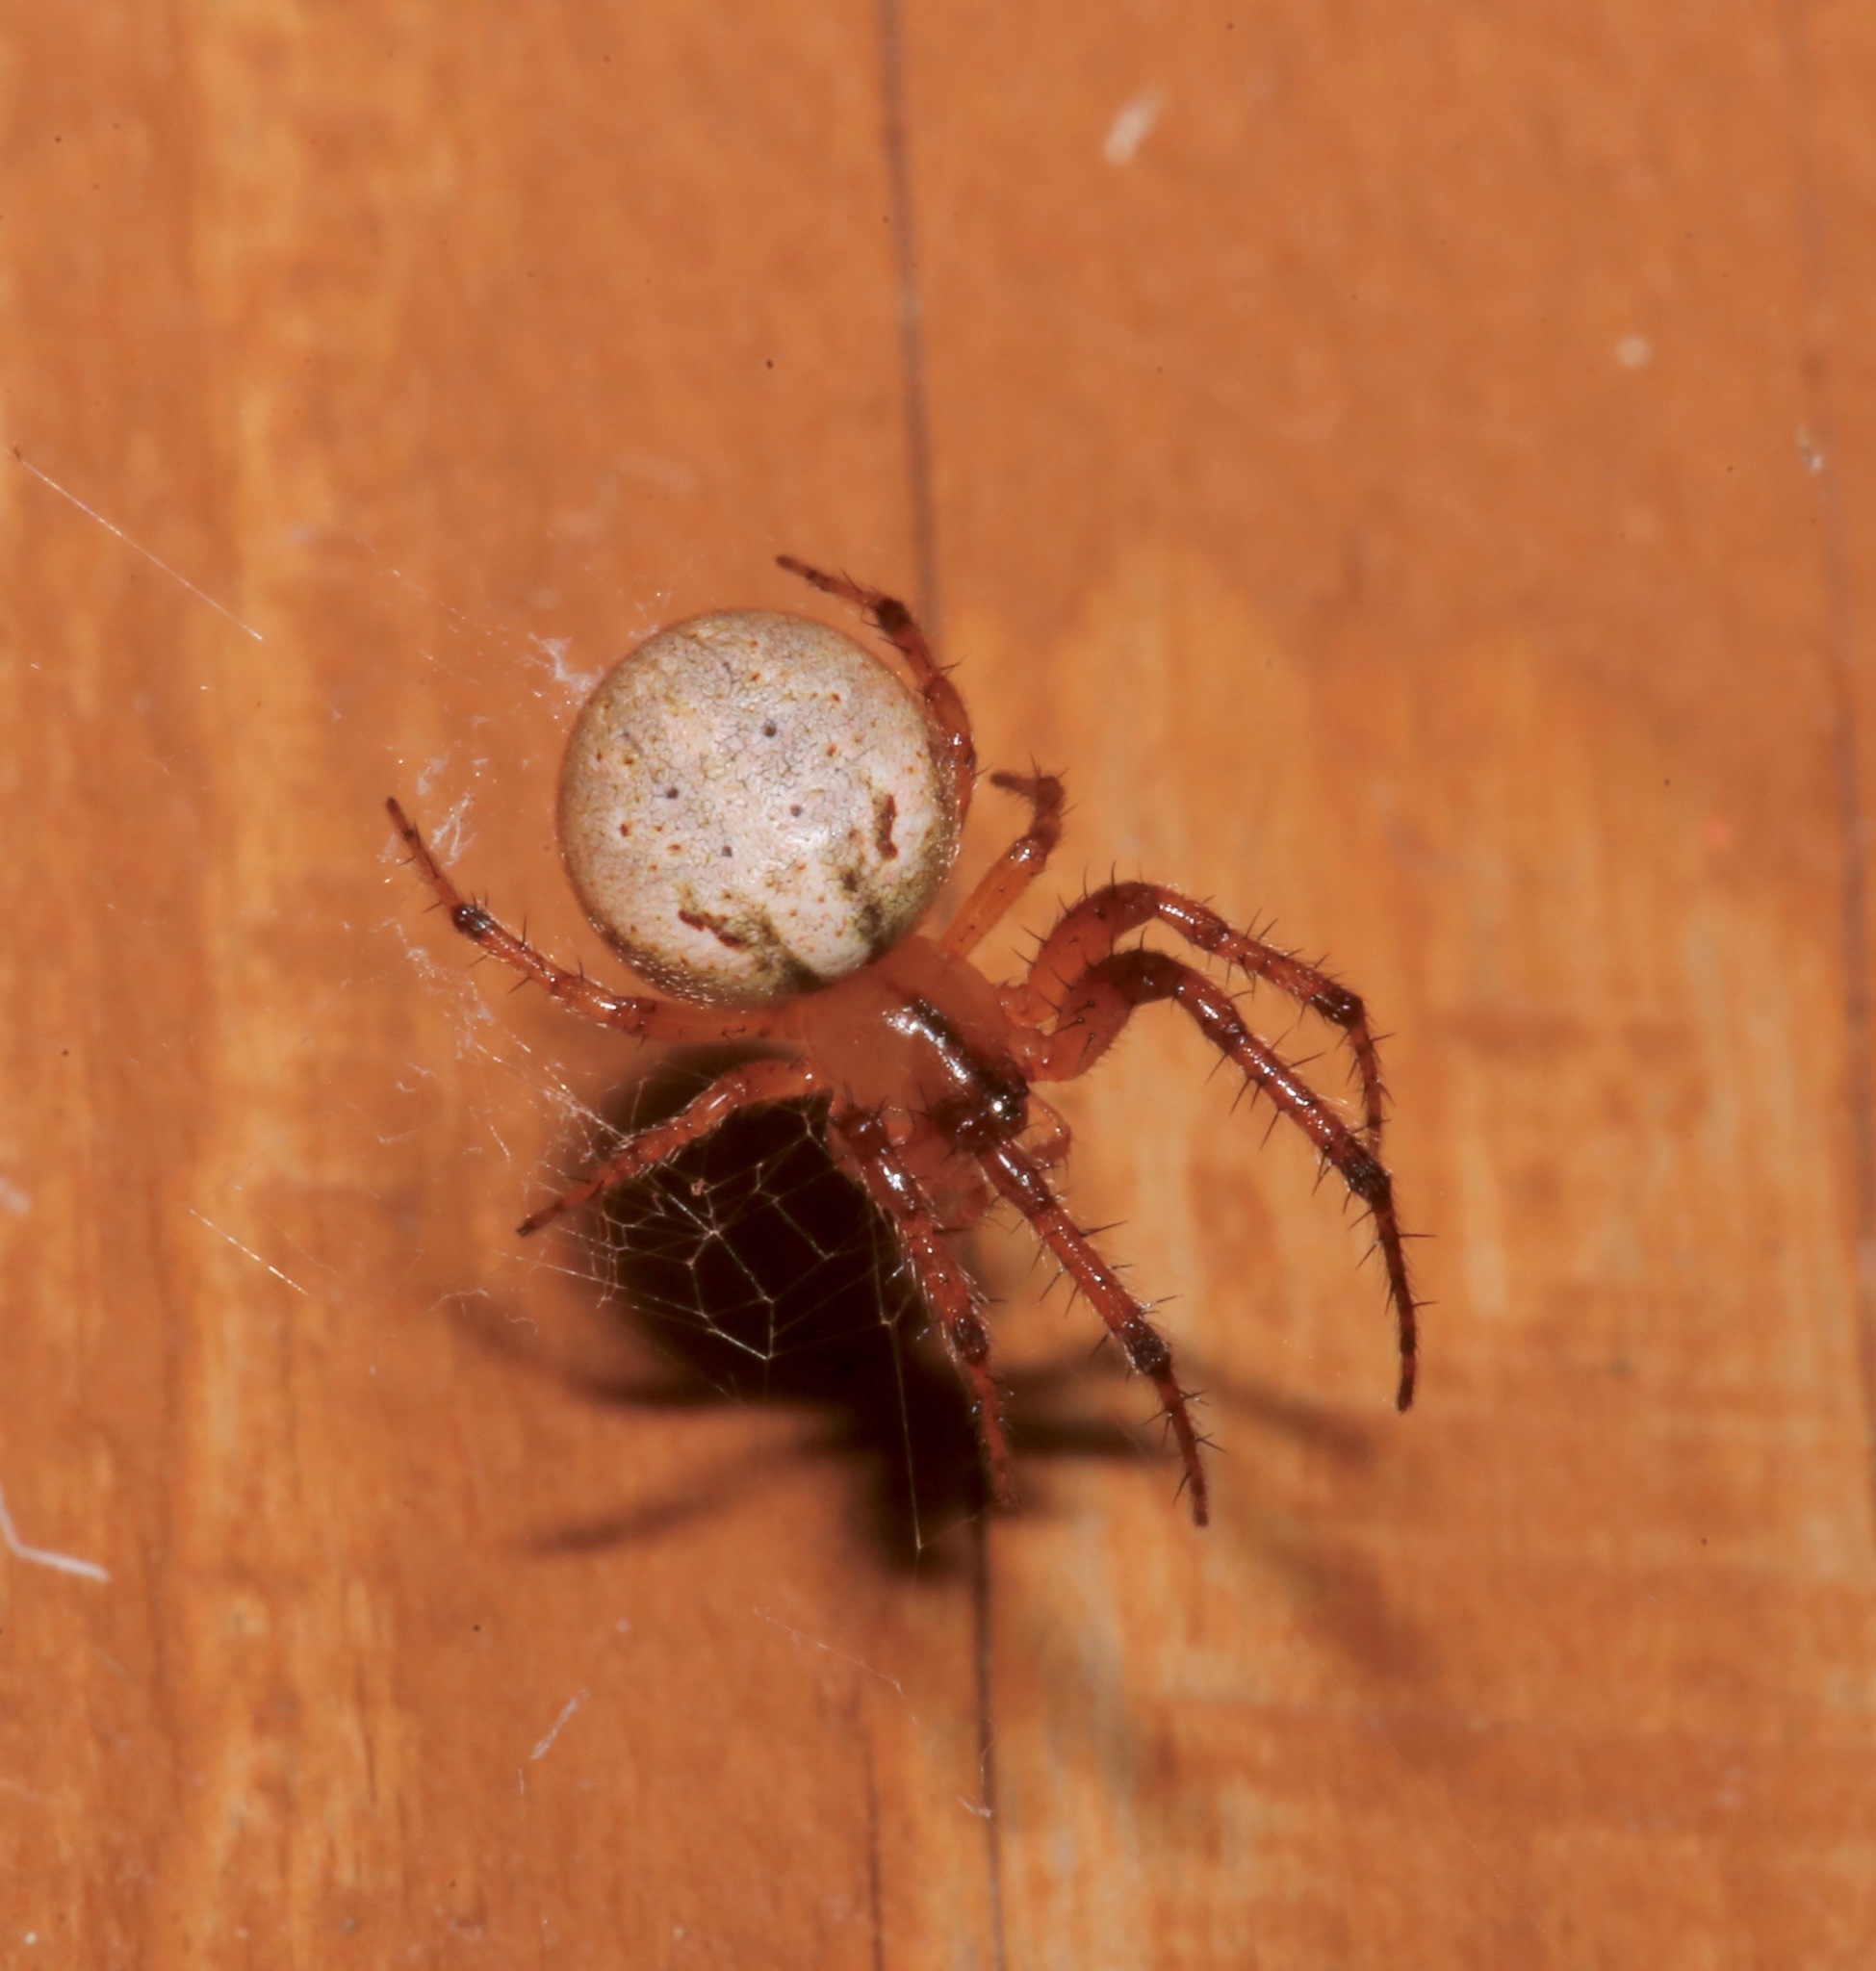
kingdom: Animalia
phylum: Arthropoda
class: Arachnida
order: Araneae
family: Araneidae
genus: Metazygia
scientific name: Metazygia zilloides
